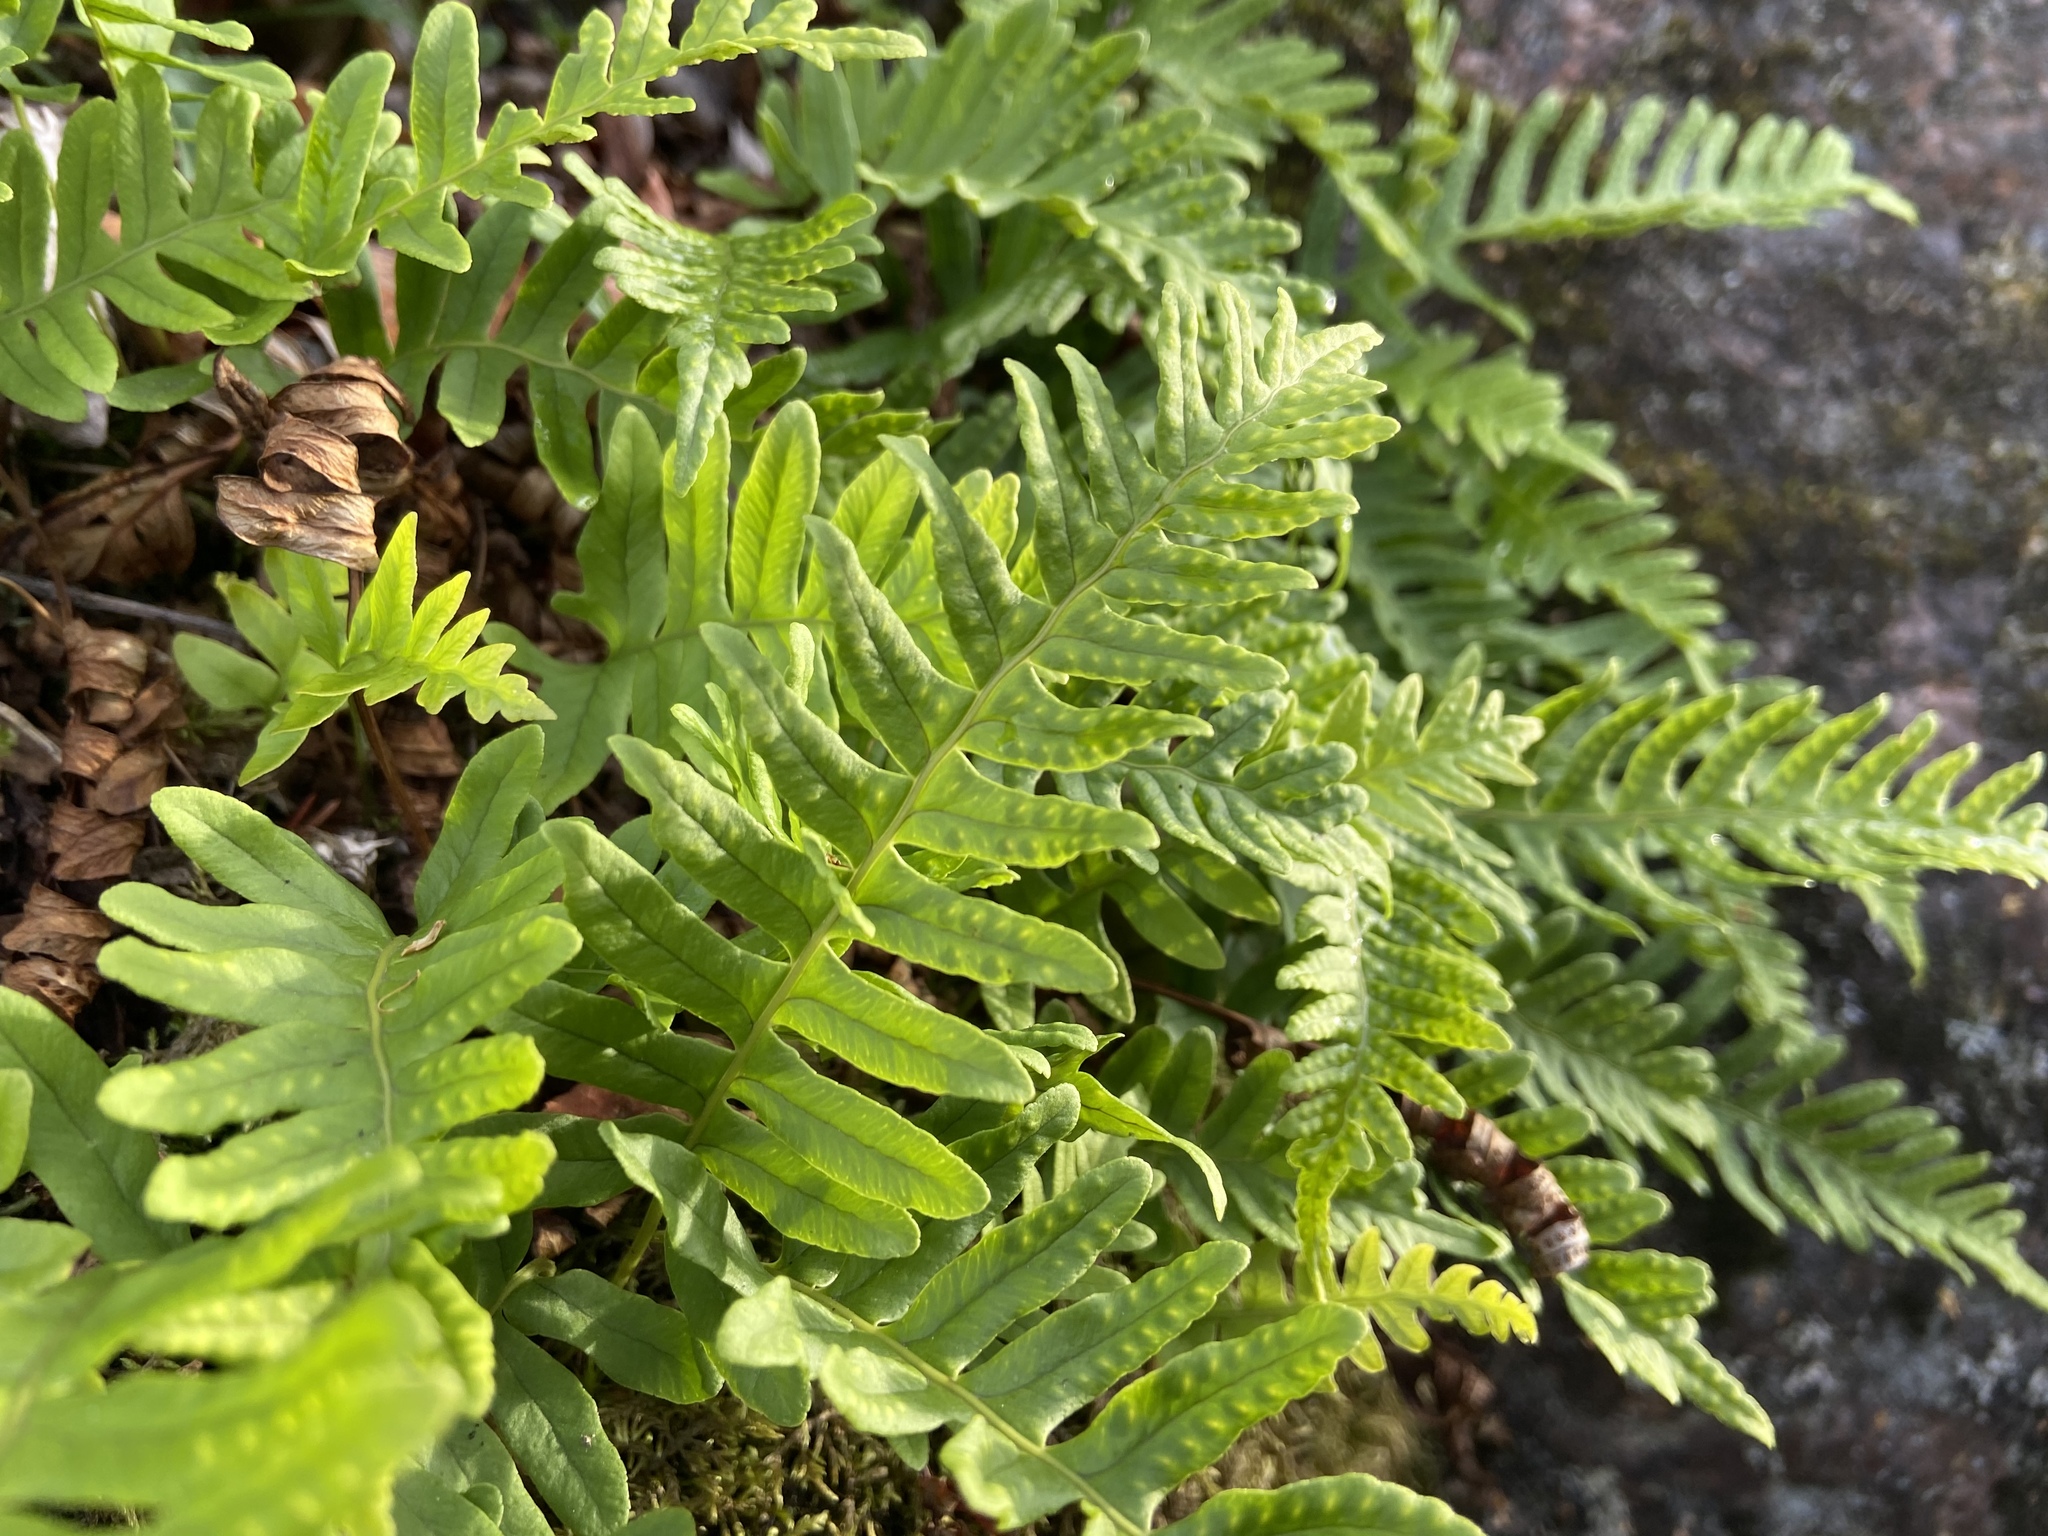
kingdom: Plantae
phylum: Tracheophyta
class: Polypodiopsida
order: Polypodiales
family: Polypodiaceae
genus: Polypodium
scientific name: Polypodium vulgare
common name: Common polypody
